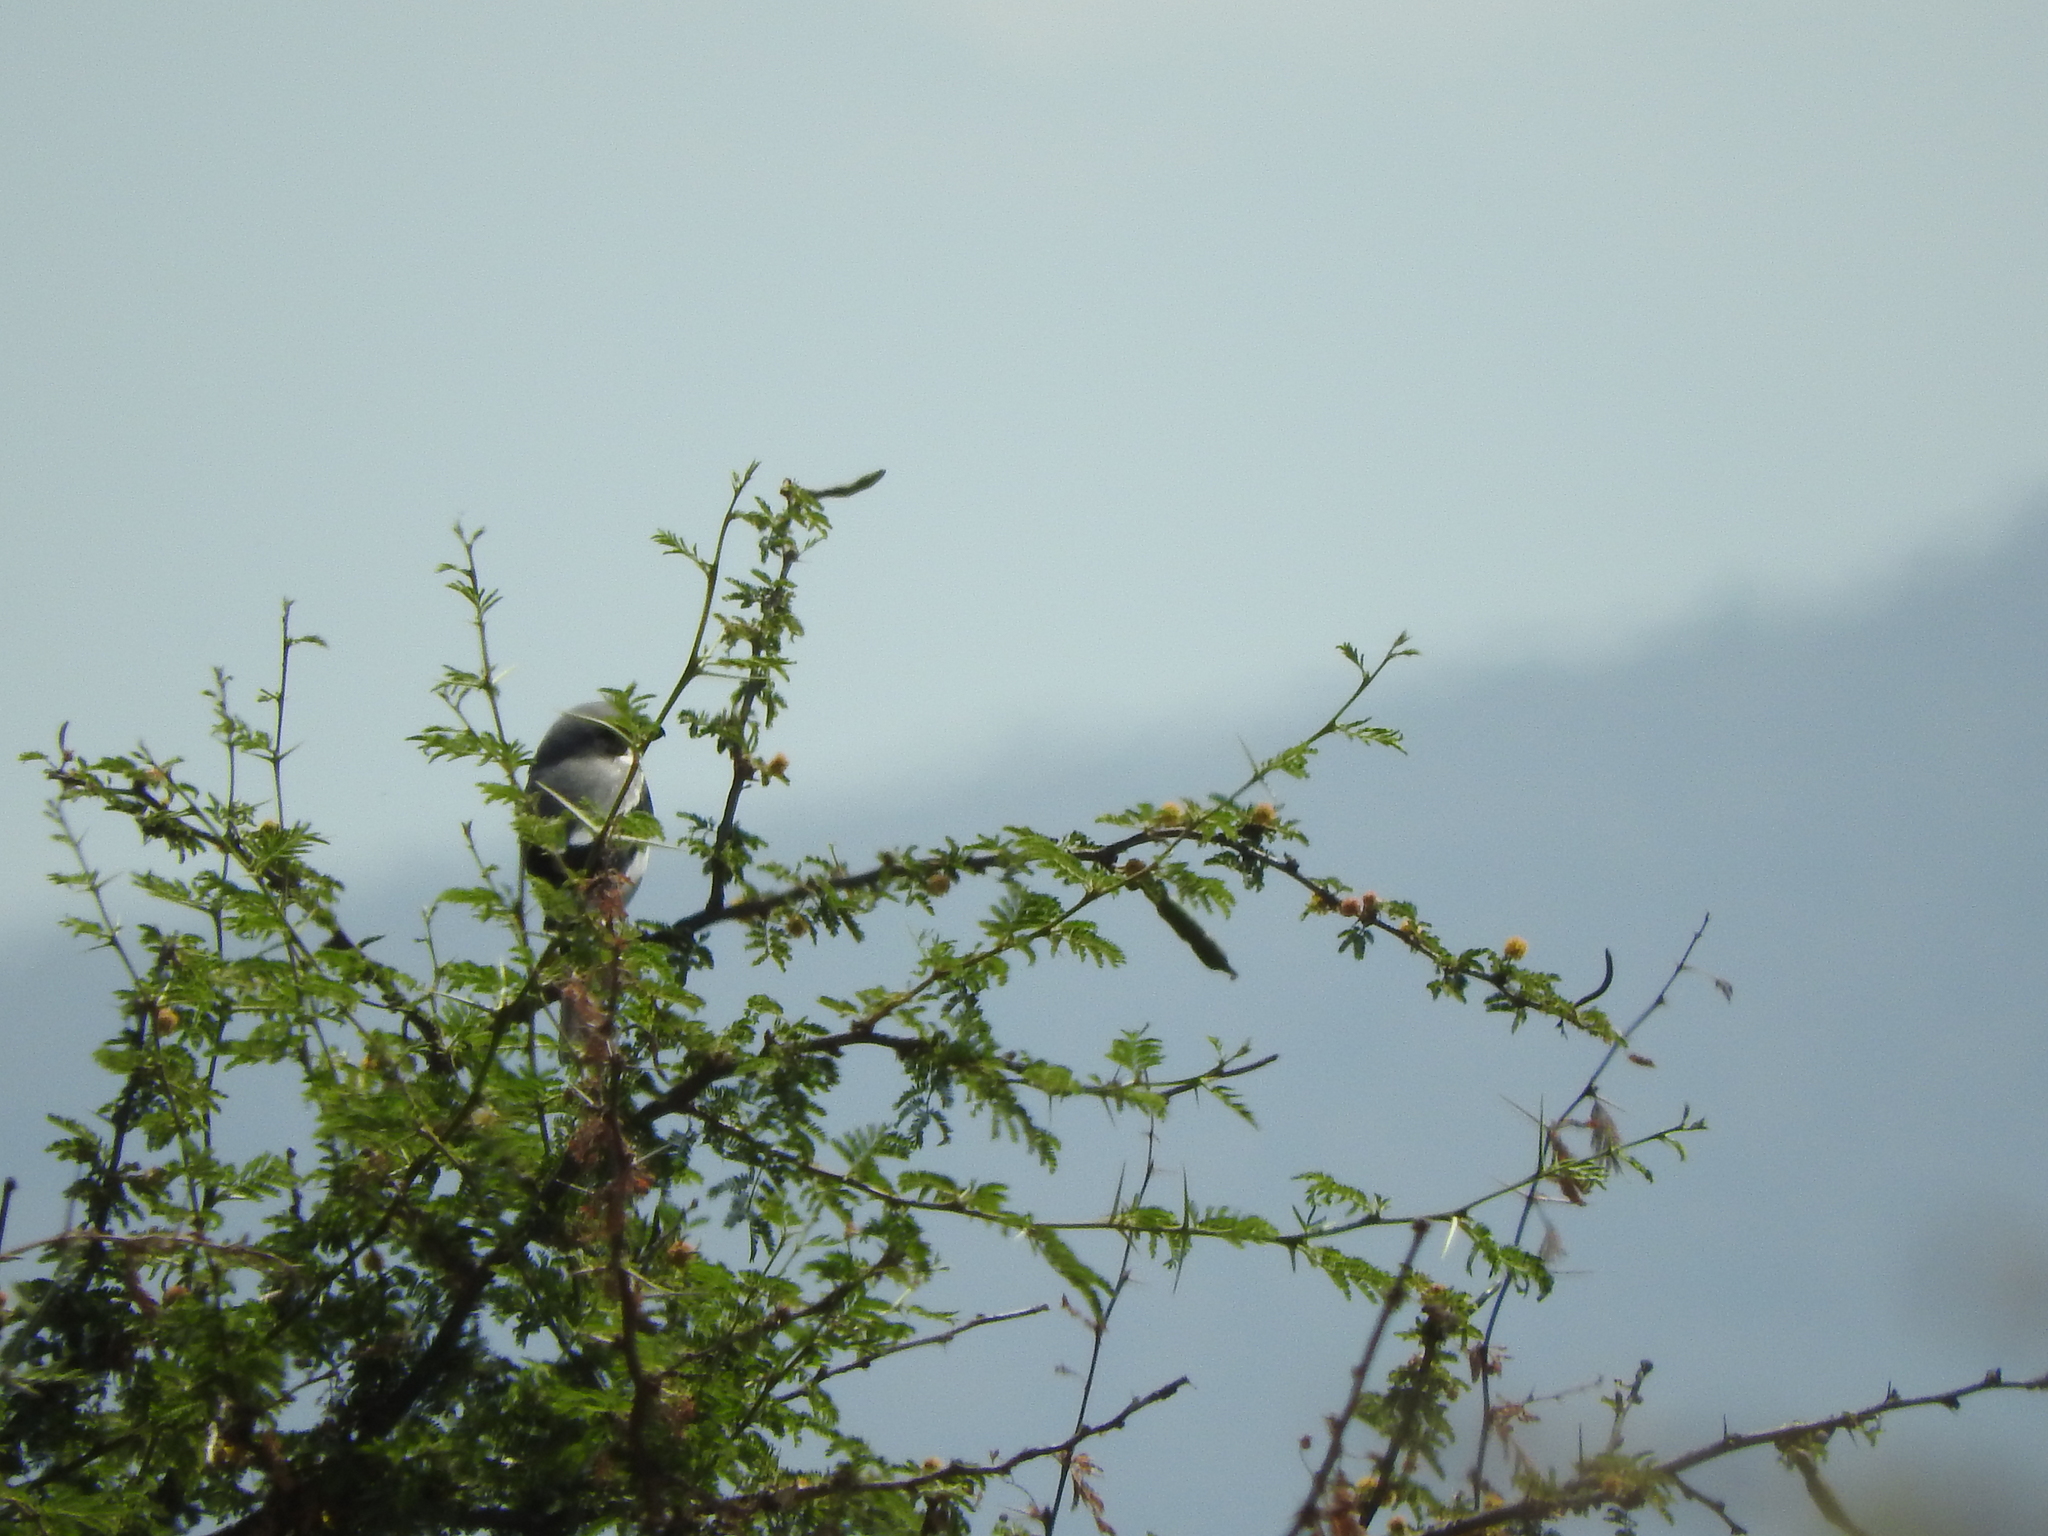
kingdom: Animalia
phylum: Chordata
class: Aves
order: Passeriformes
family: Laniidae
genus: Lanius
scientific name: Lanius ludovicianus
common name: Loggerhead shrike
